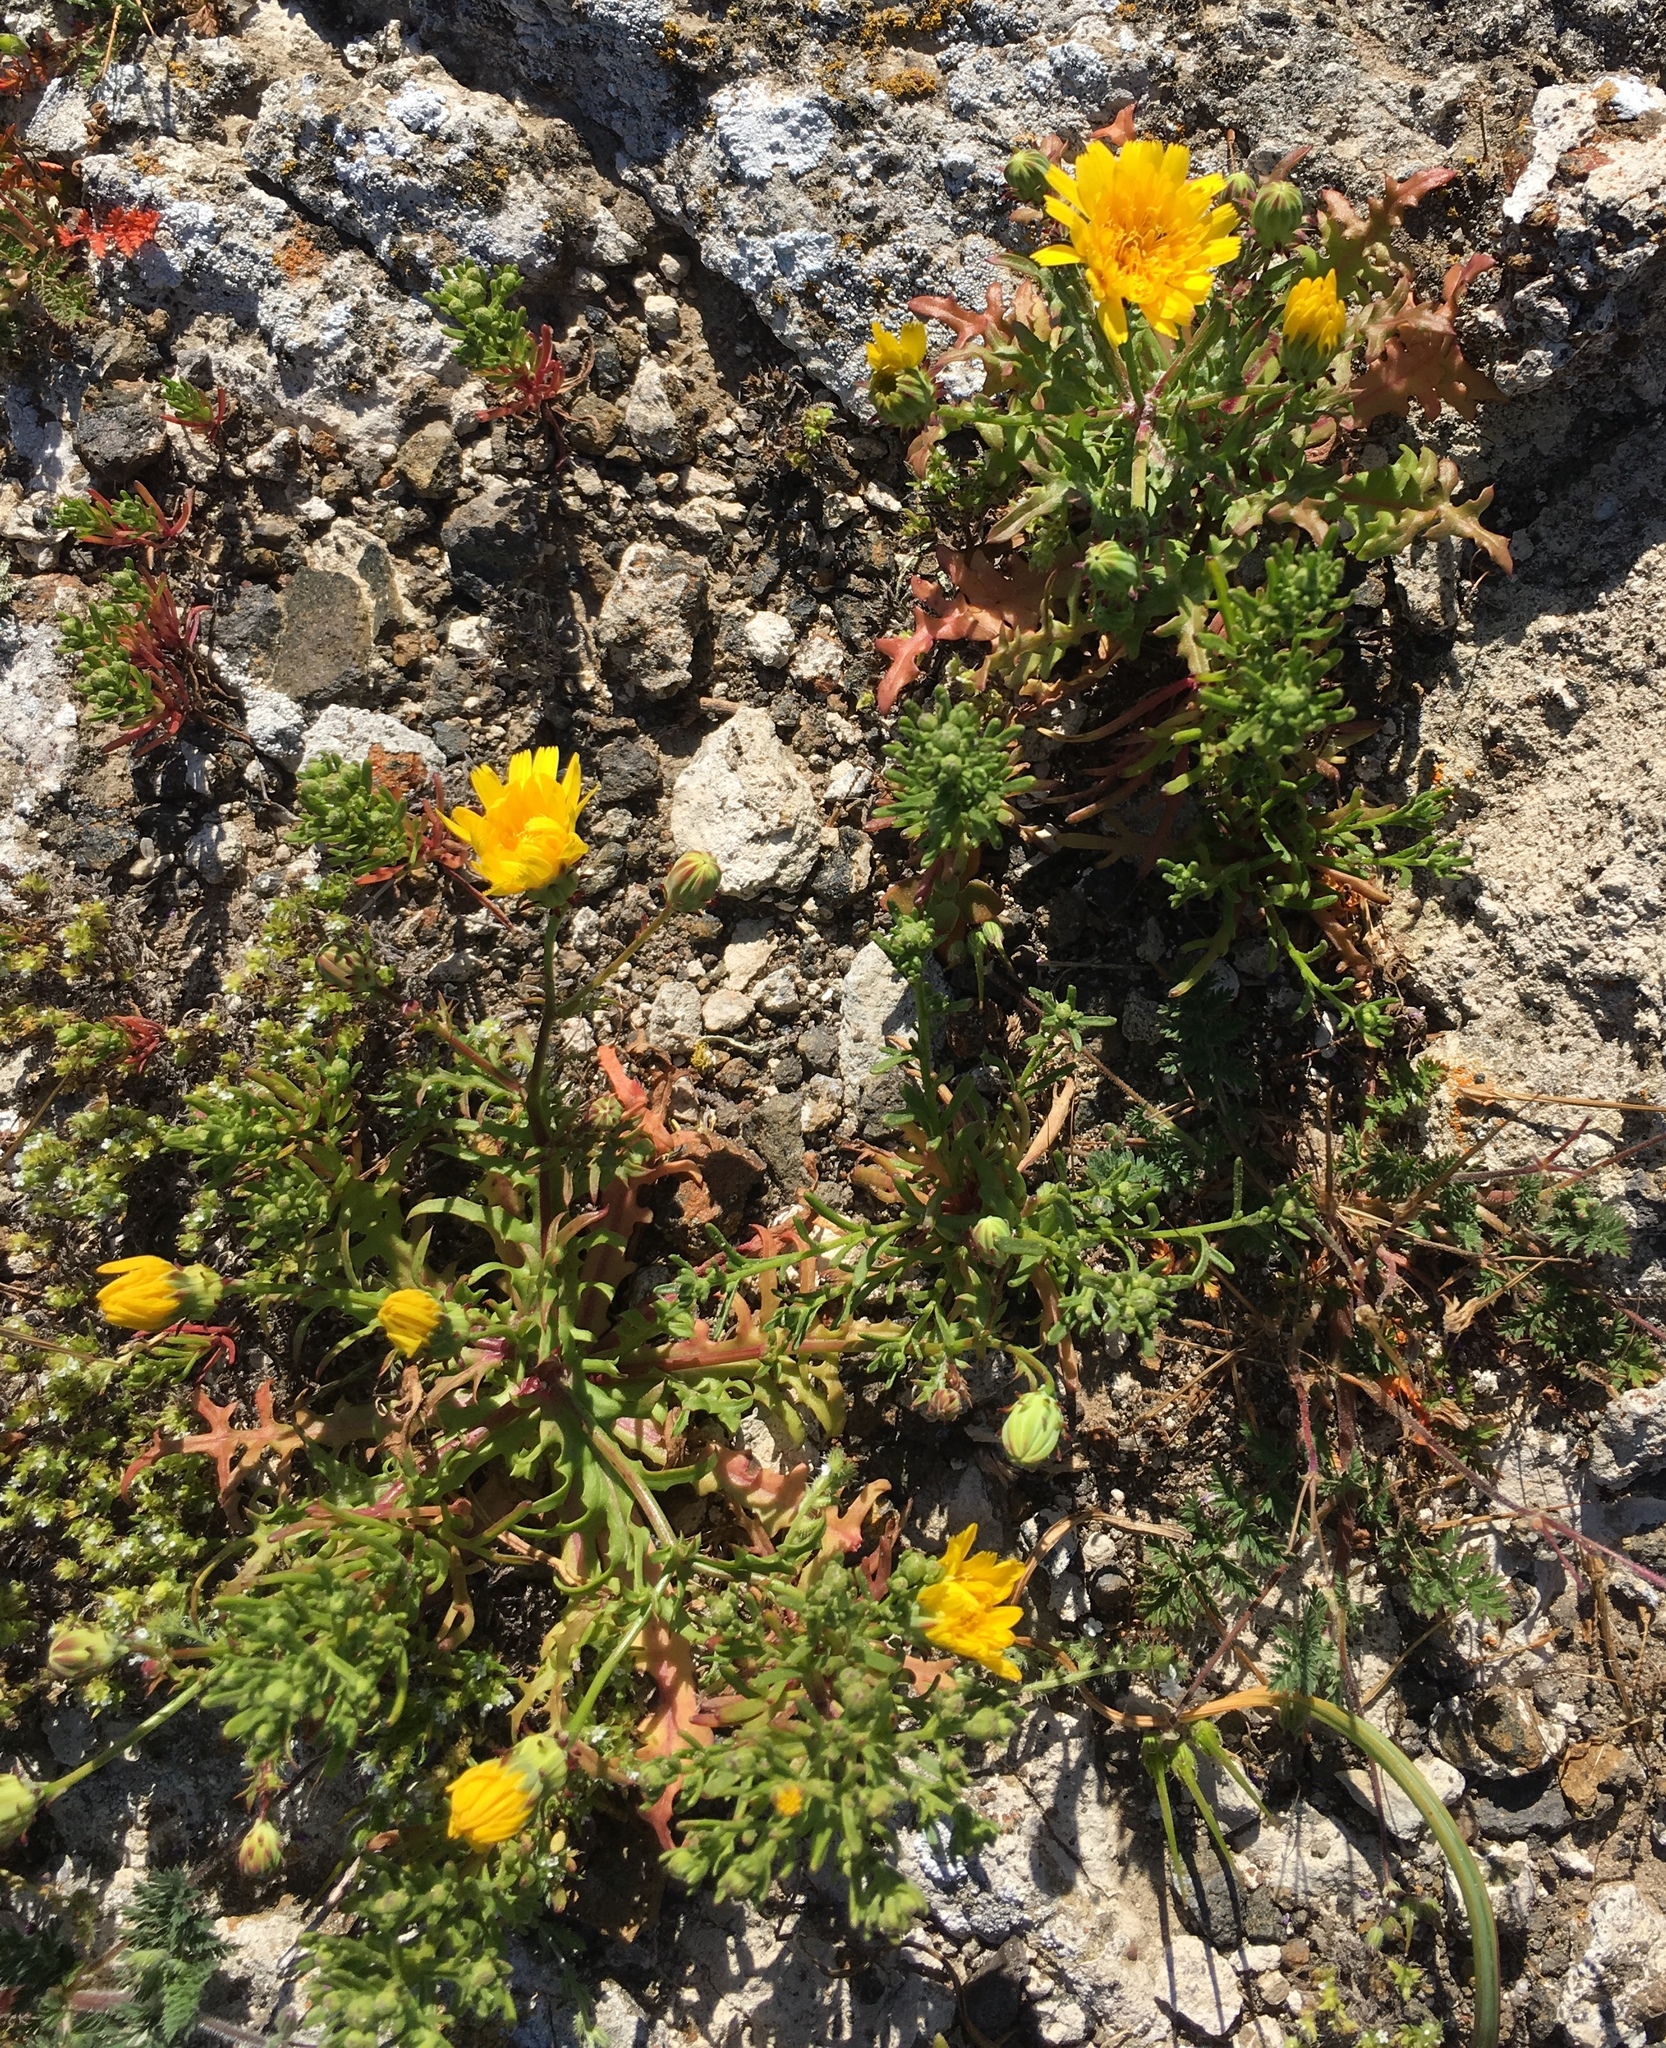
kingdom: Plantae
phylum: Tracheophyta
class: Magnoliopsida
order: Asterales
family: Asteraceae
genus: Malacothrix
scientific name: Malacothrix foliosa
